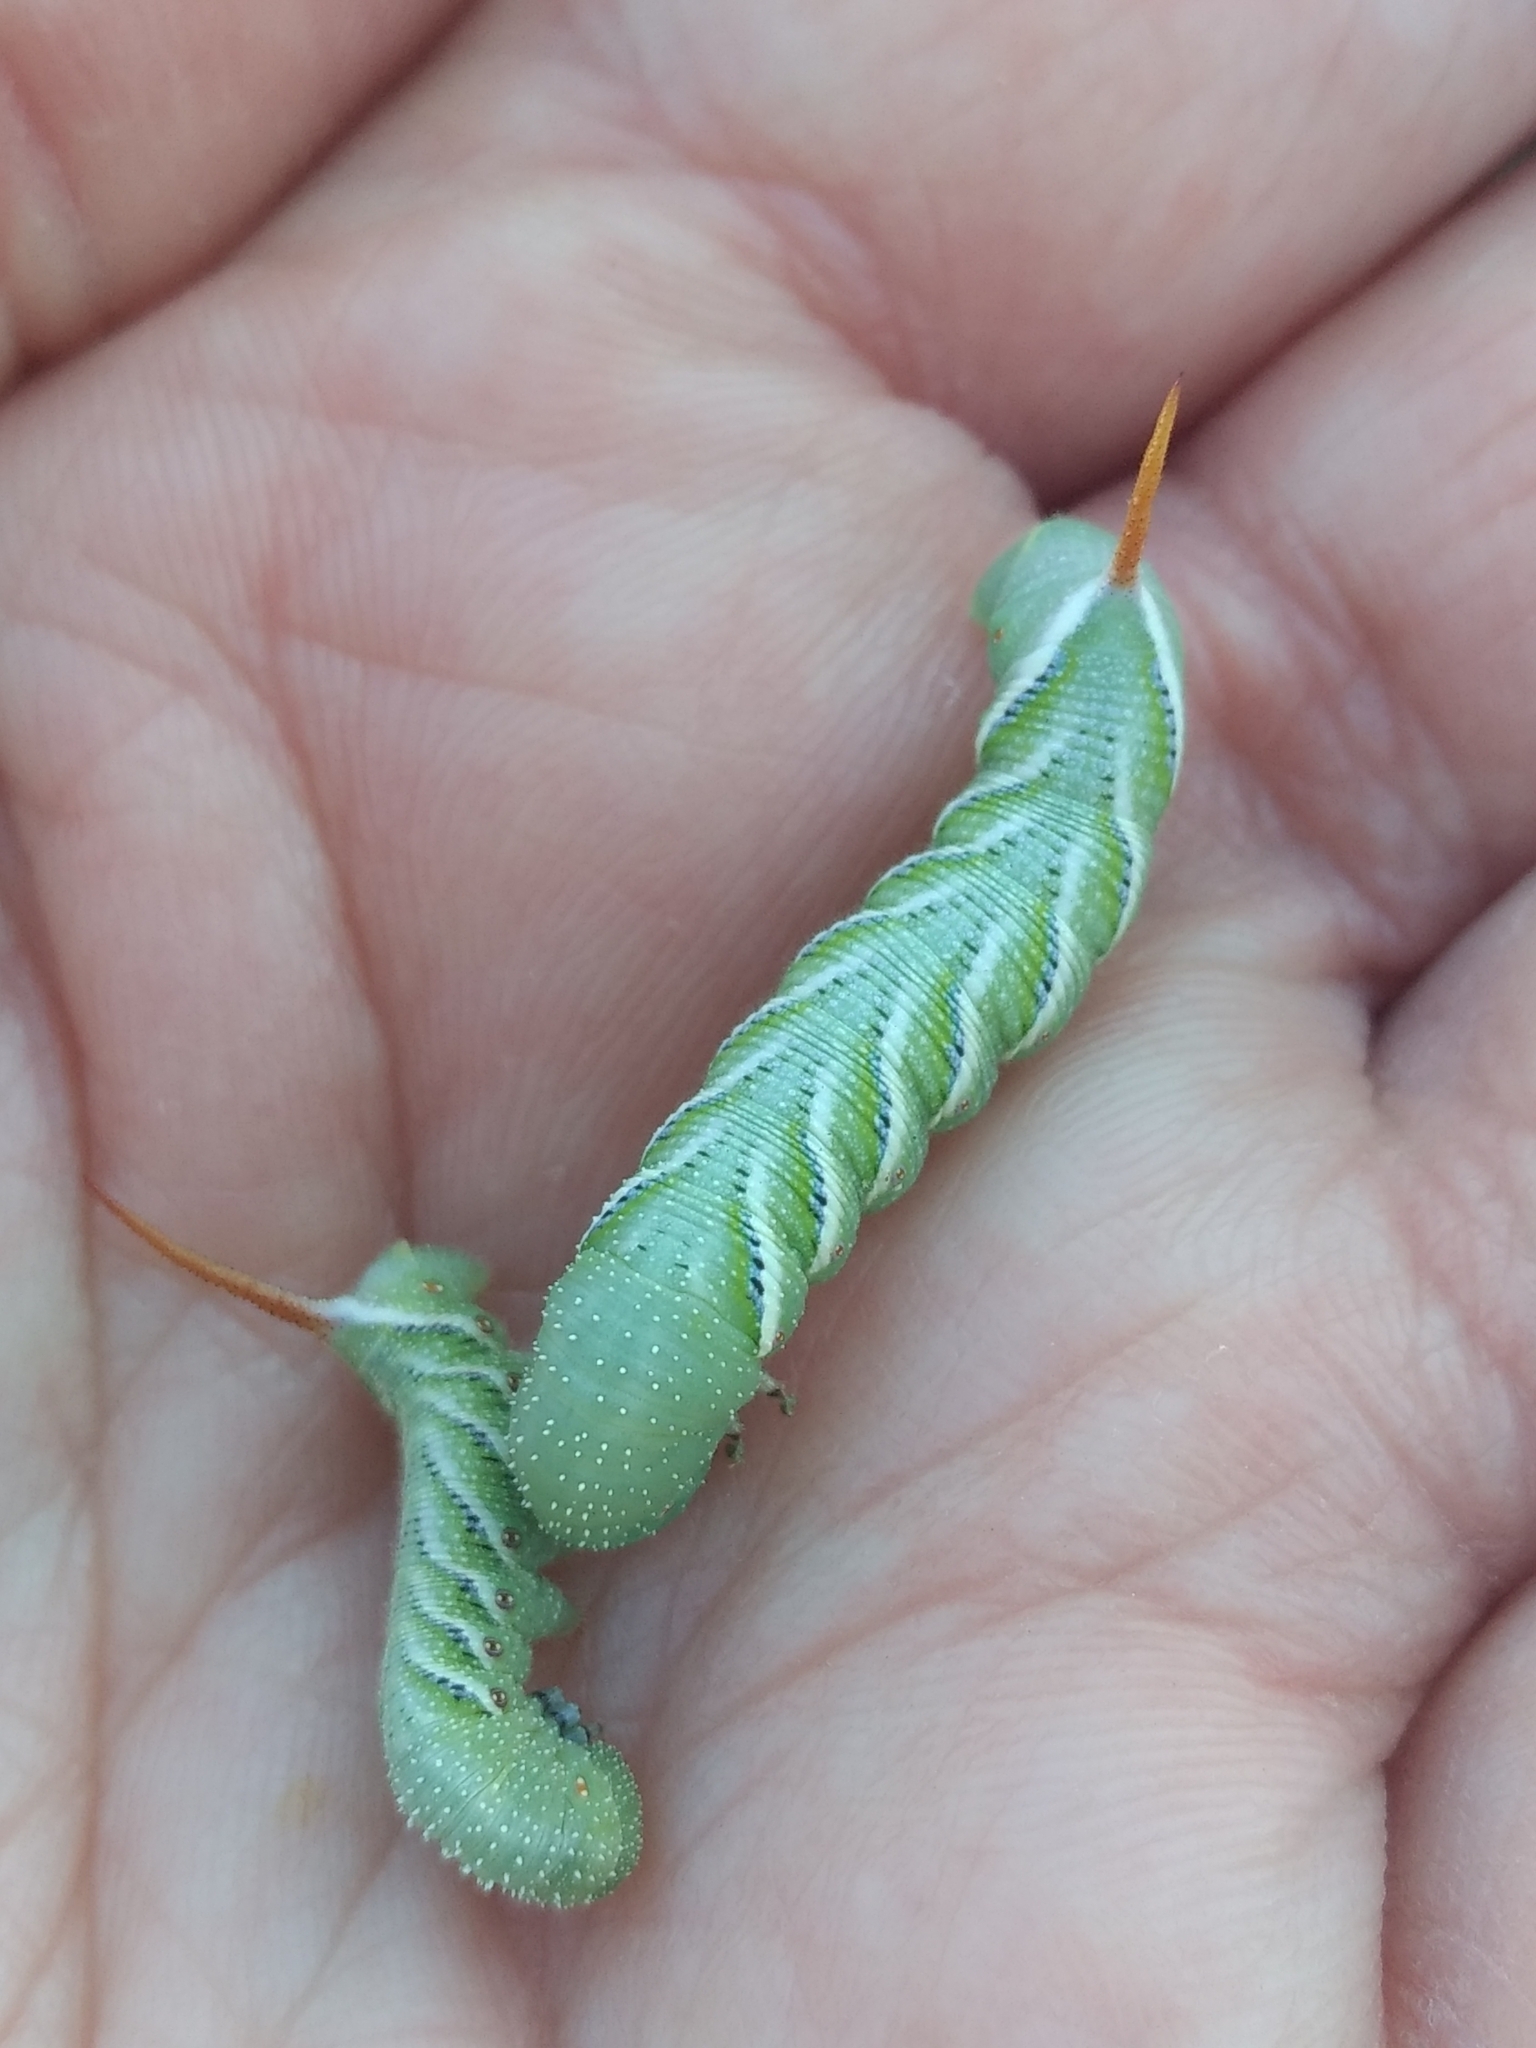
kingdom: Animalia
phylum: Arthropoda
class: Insecta
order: Lepidoptera
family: Sphingidae
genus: Manduca
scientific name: Manduca sexta
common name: Carolina sphinx
